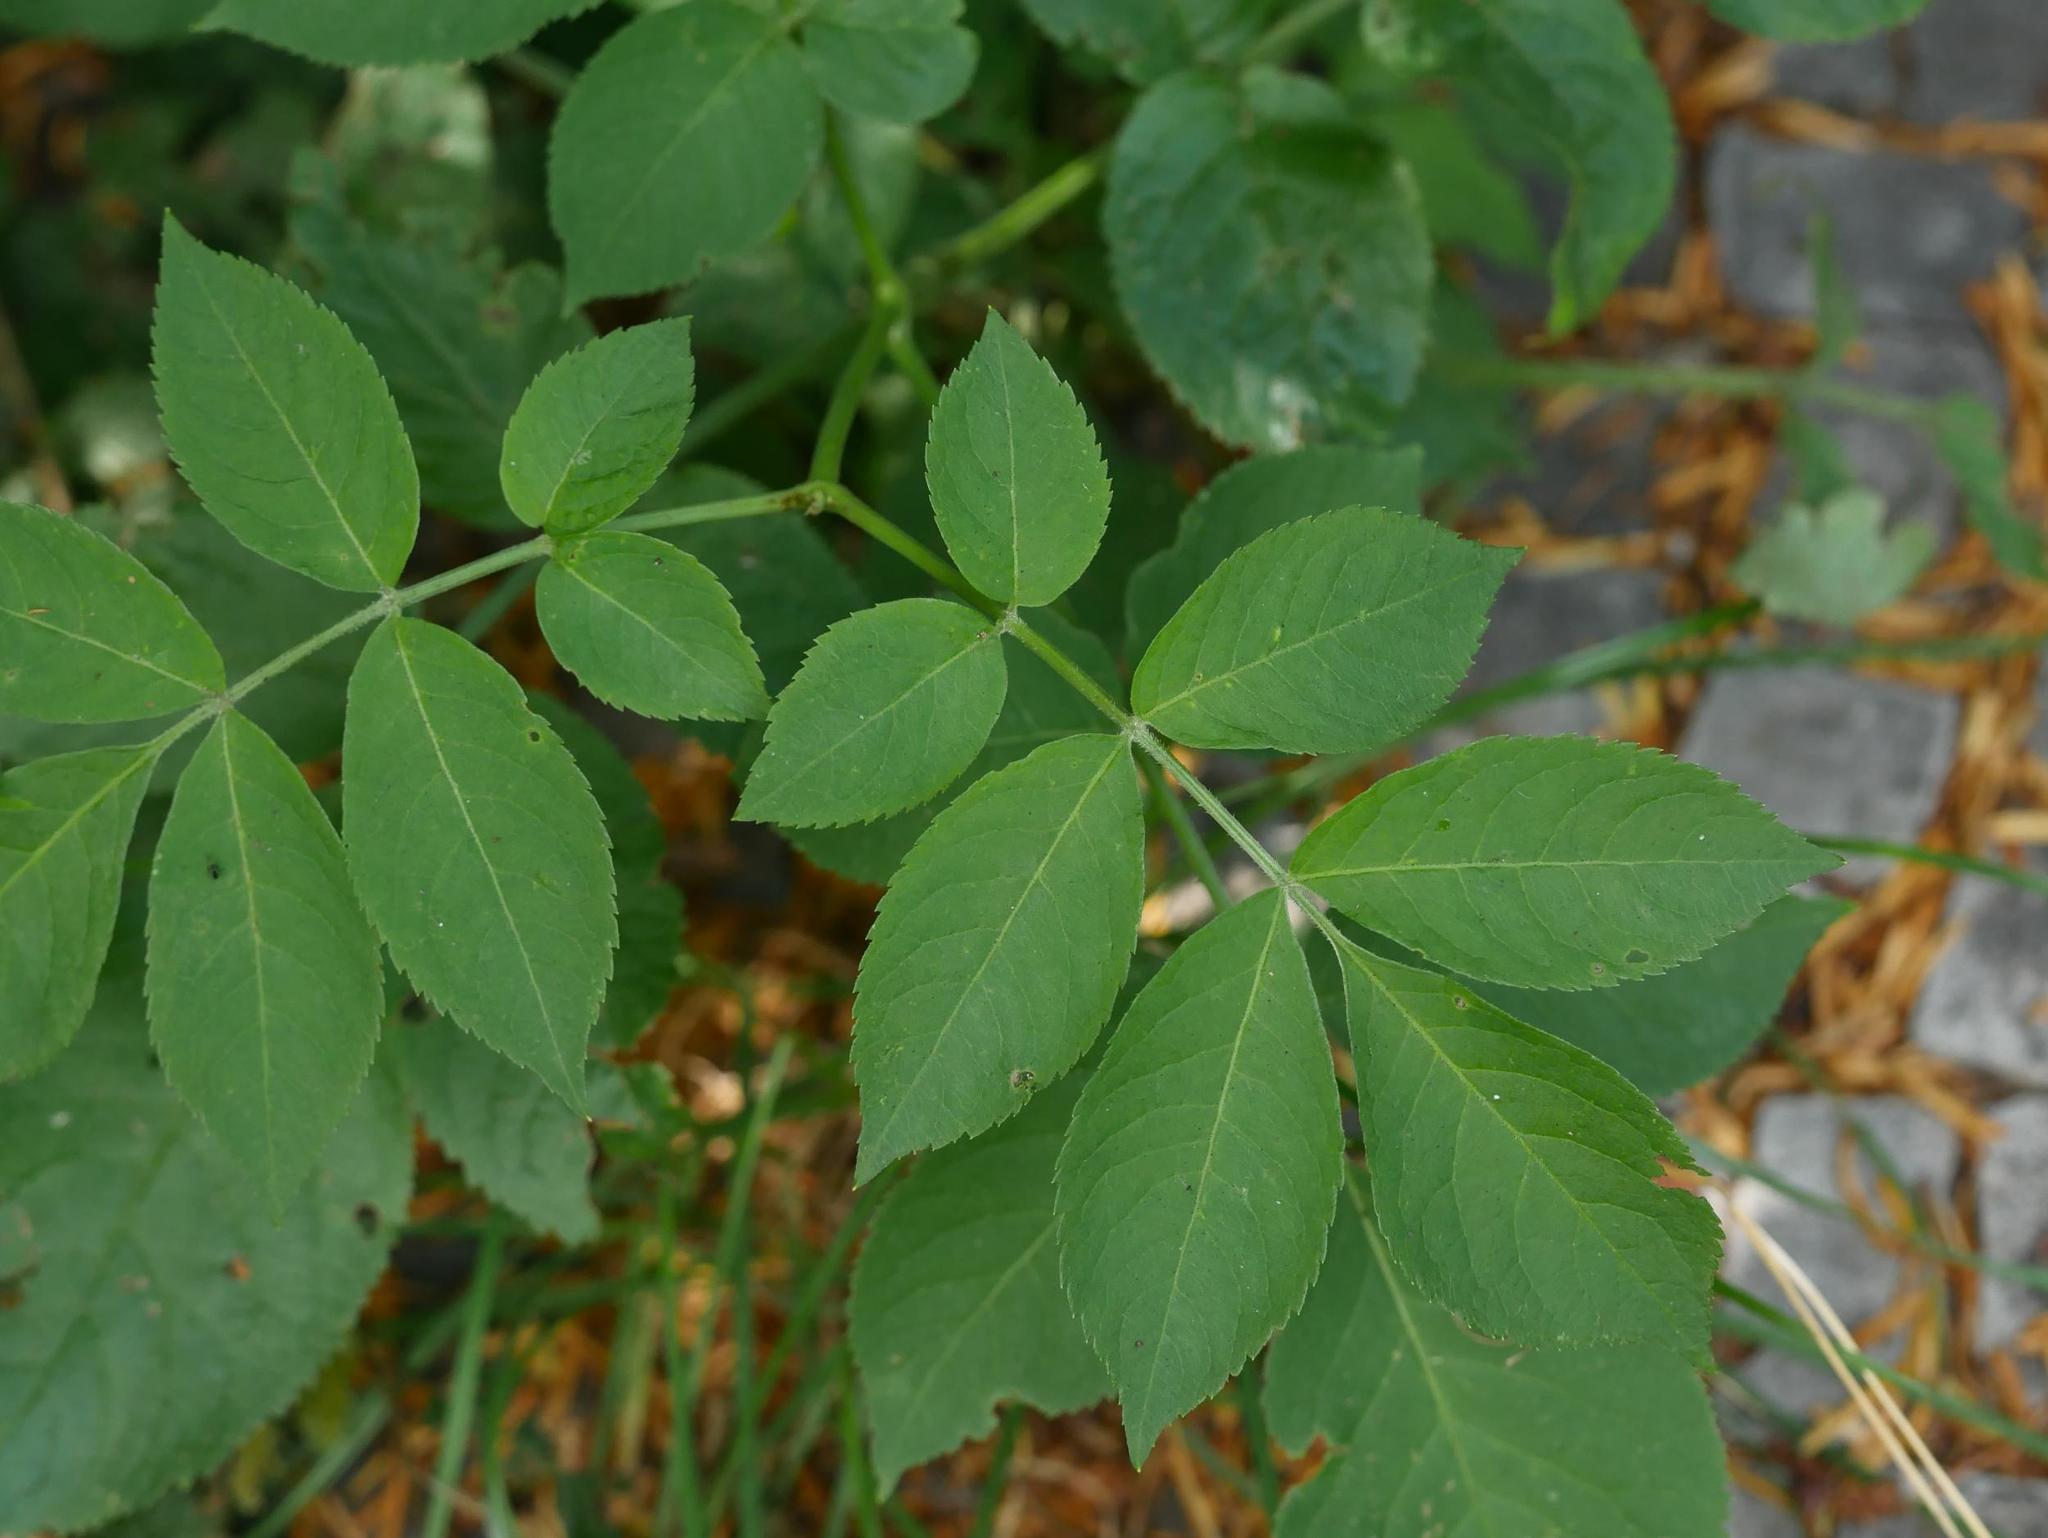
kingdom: Plantae
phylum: Tracheophyta
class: Magnoliopsida
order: Dipsacales
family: Viburnaceae
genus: Sambucus
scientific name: Sambucus nigra
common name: Elder
